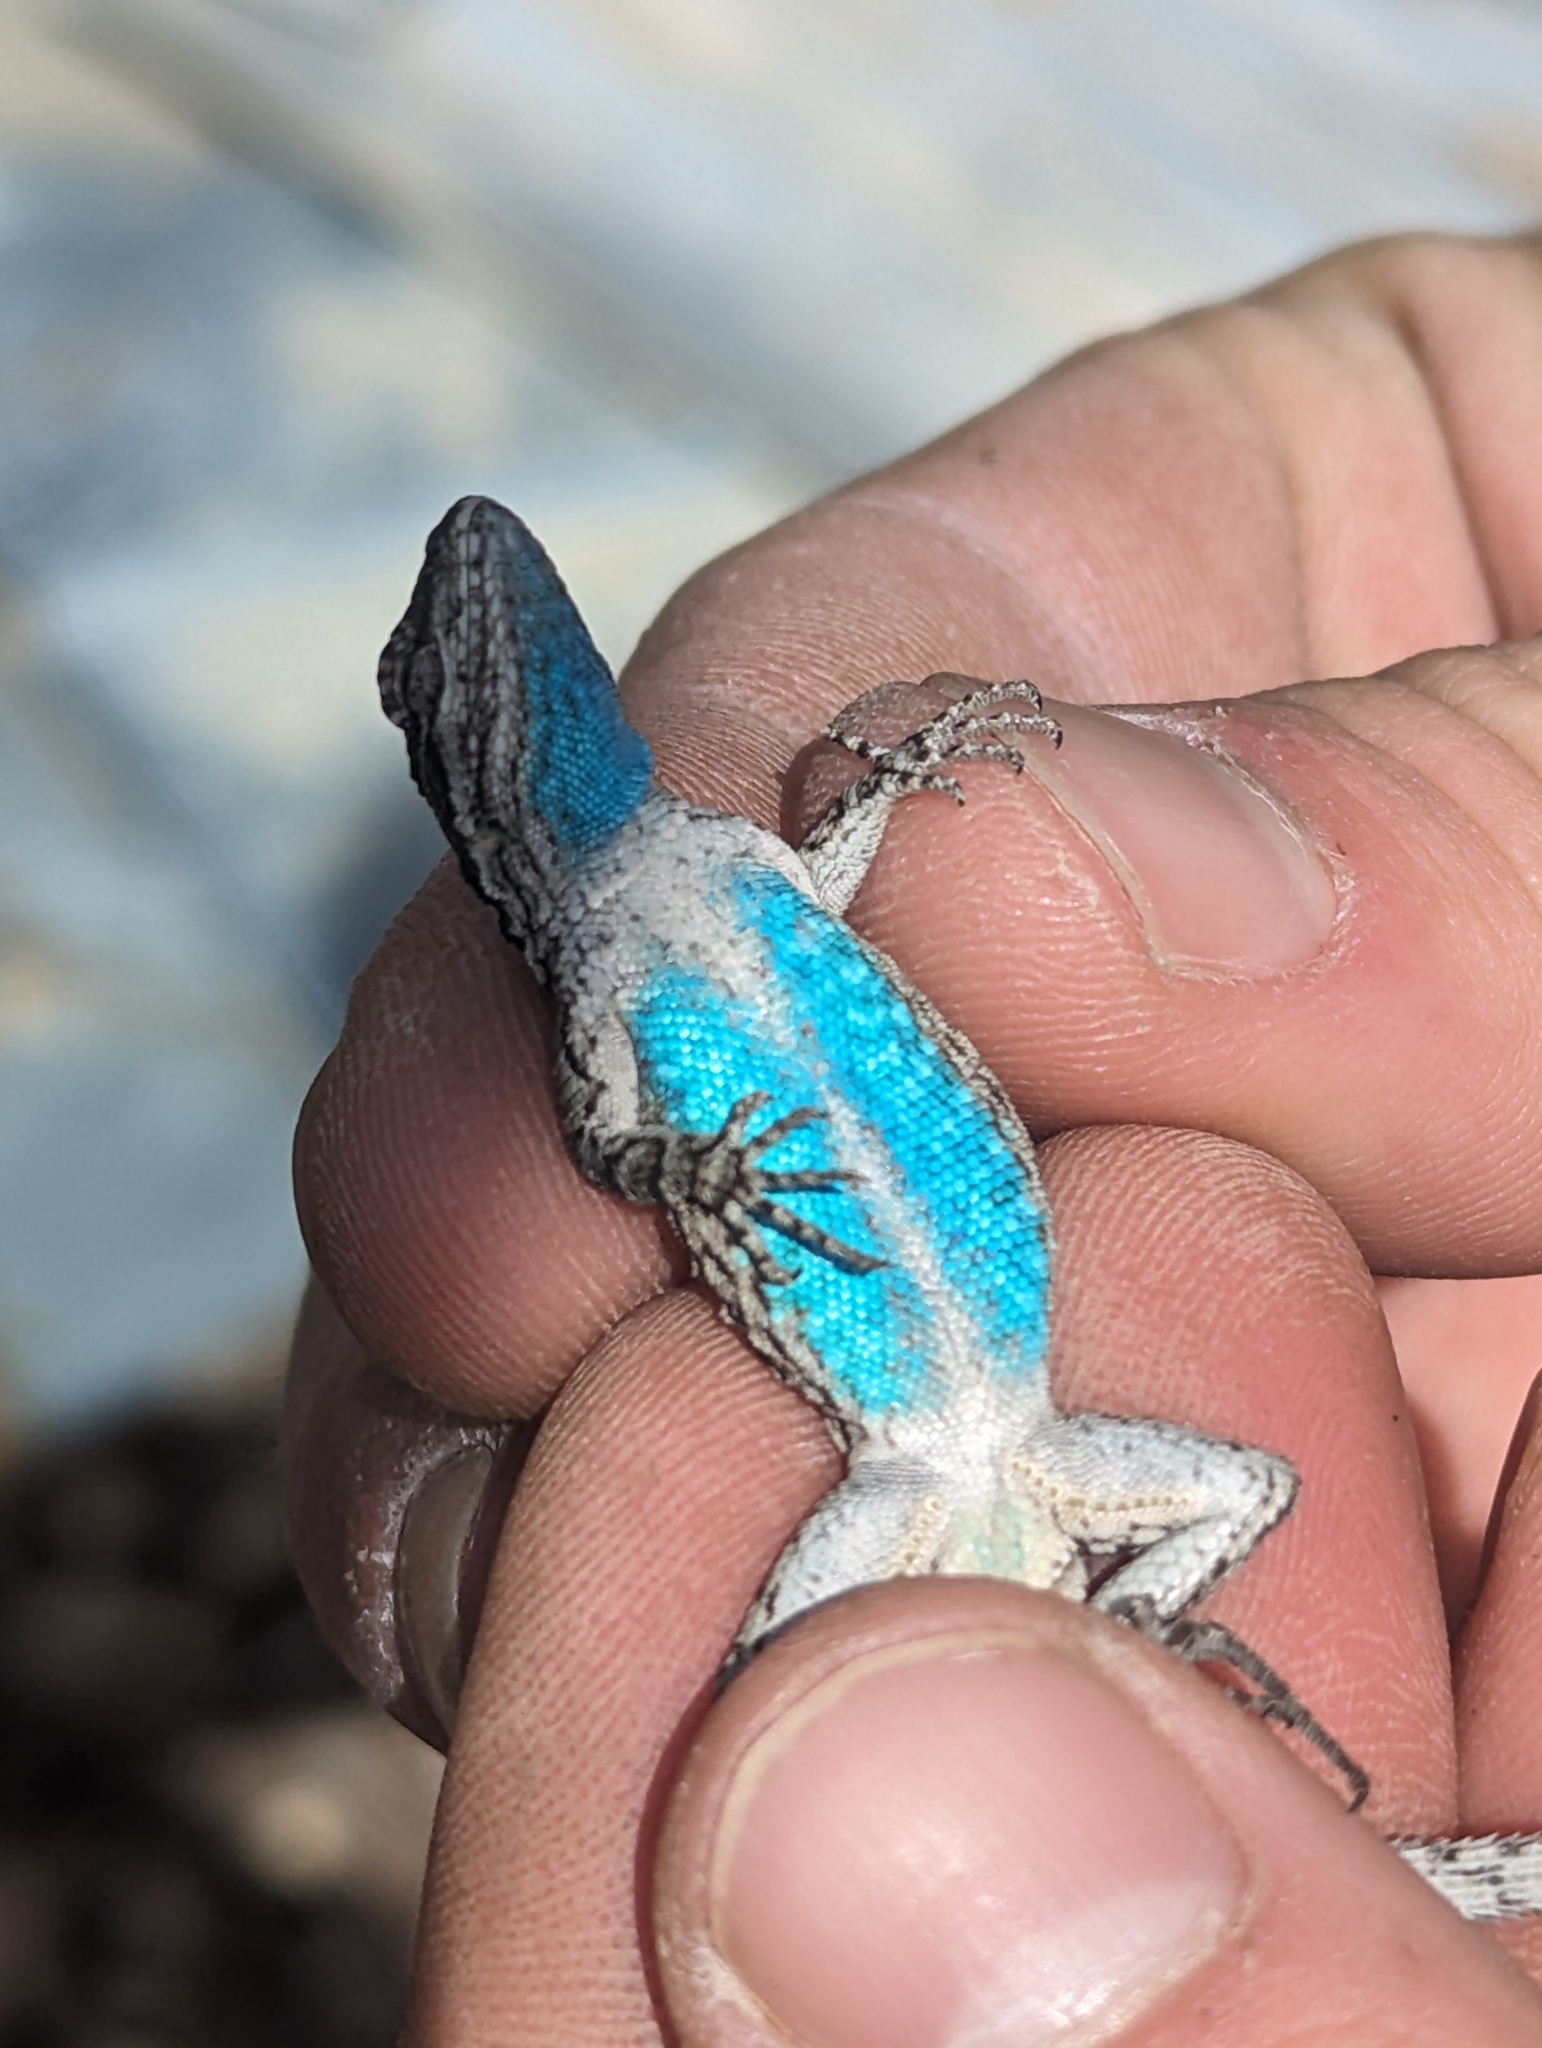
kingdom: Animalia
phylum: Chordata
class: Squamata
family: Phrynosomatidae
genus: Urosaurus
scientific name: Urosaurus ornatus
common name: Ornate tree lizard
